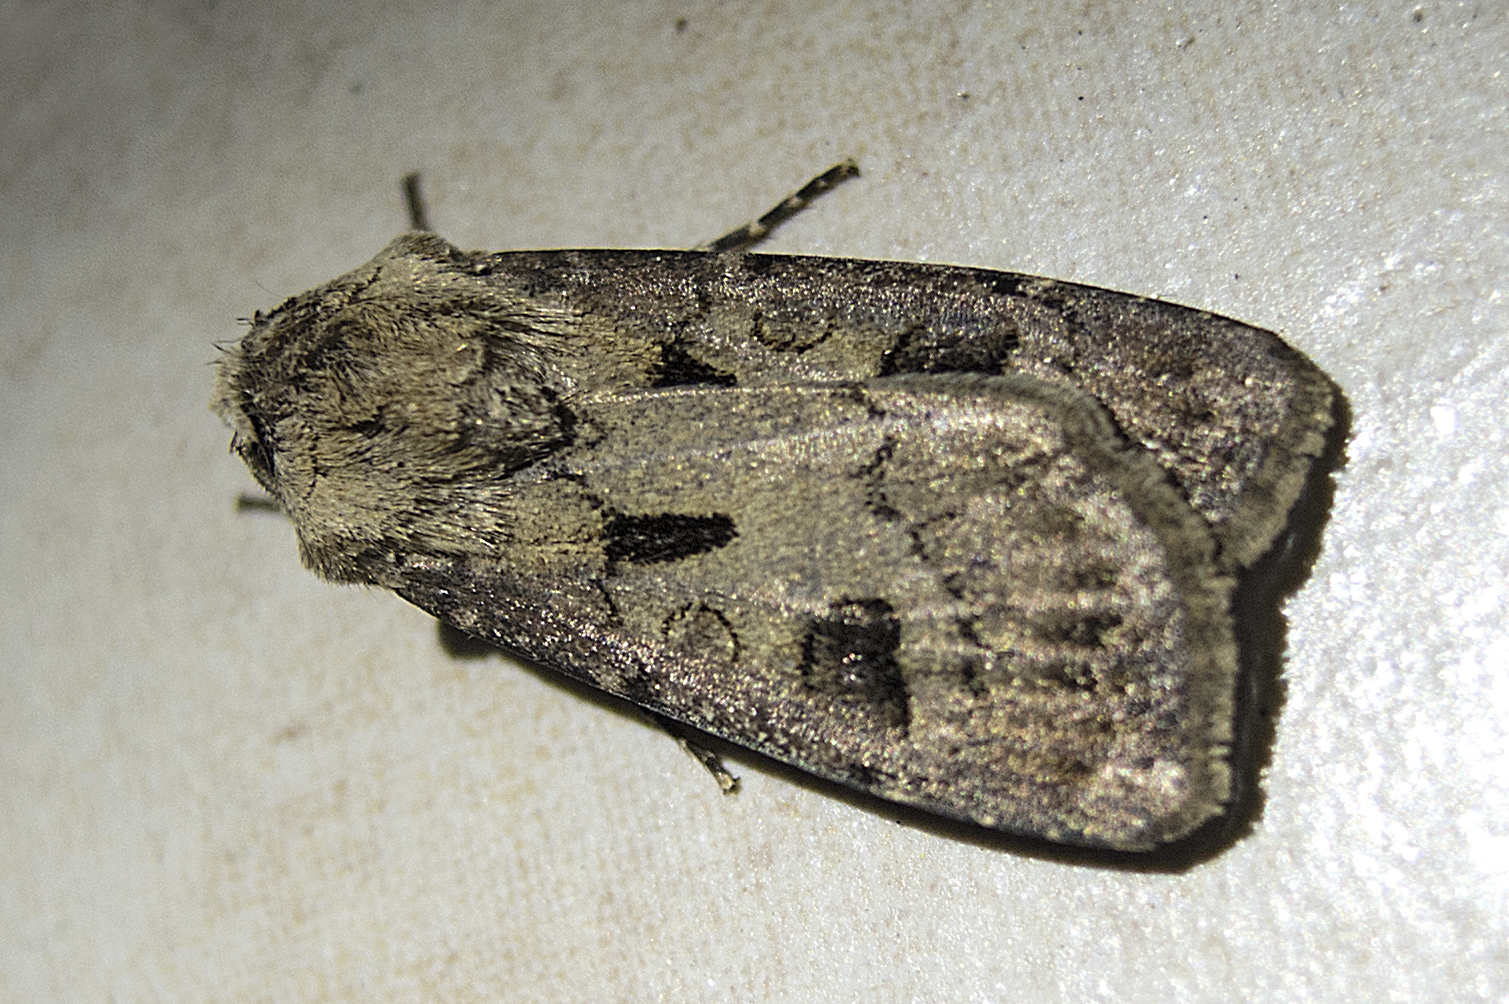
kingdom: Animalia
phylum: Arthropoda
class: Insecta
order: Lepidoptera
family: Noctuidae
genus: Agrotis
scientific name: Agrotis exclamationis
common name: Heart and dart
